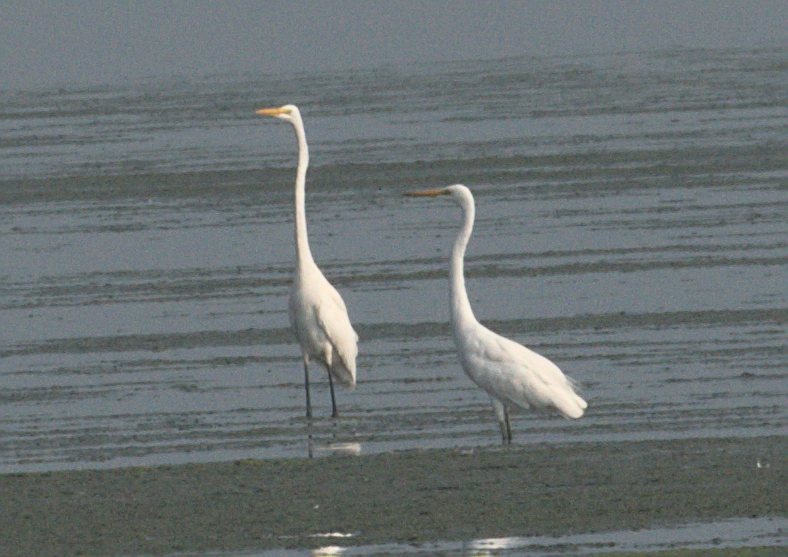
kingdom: Animalia
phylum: Chordata
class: Aves
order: Pelecaniformes
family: Ardeidae
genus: Ardea
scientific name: Ardea alba
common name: Great egret
